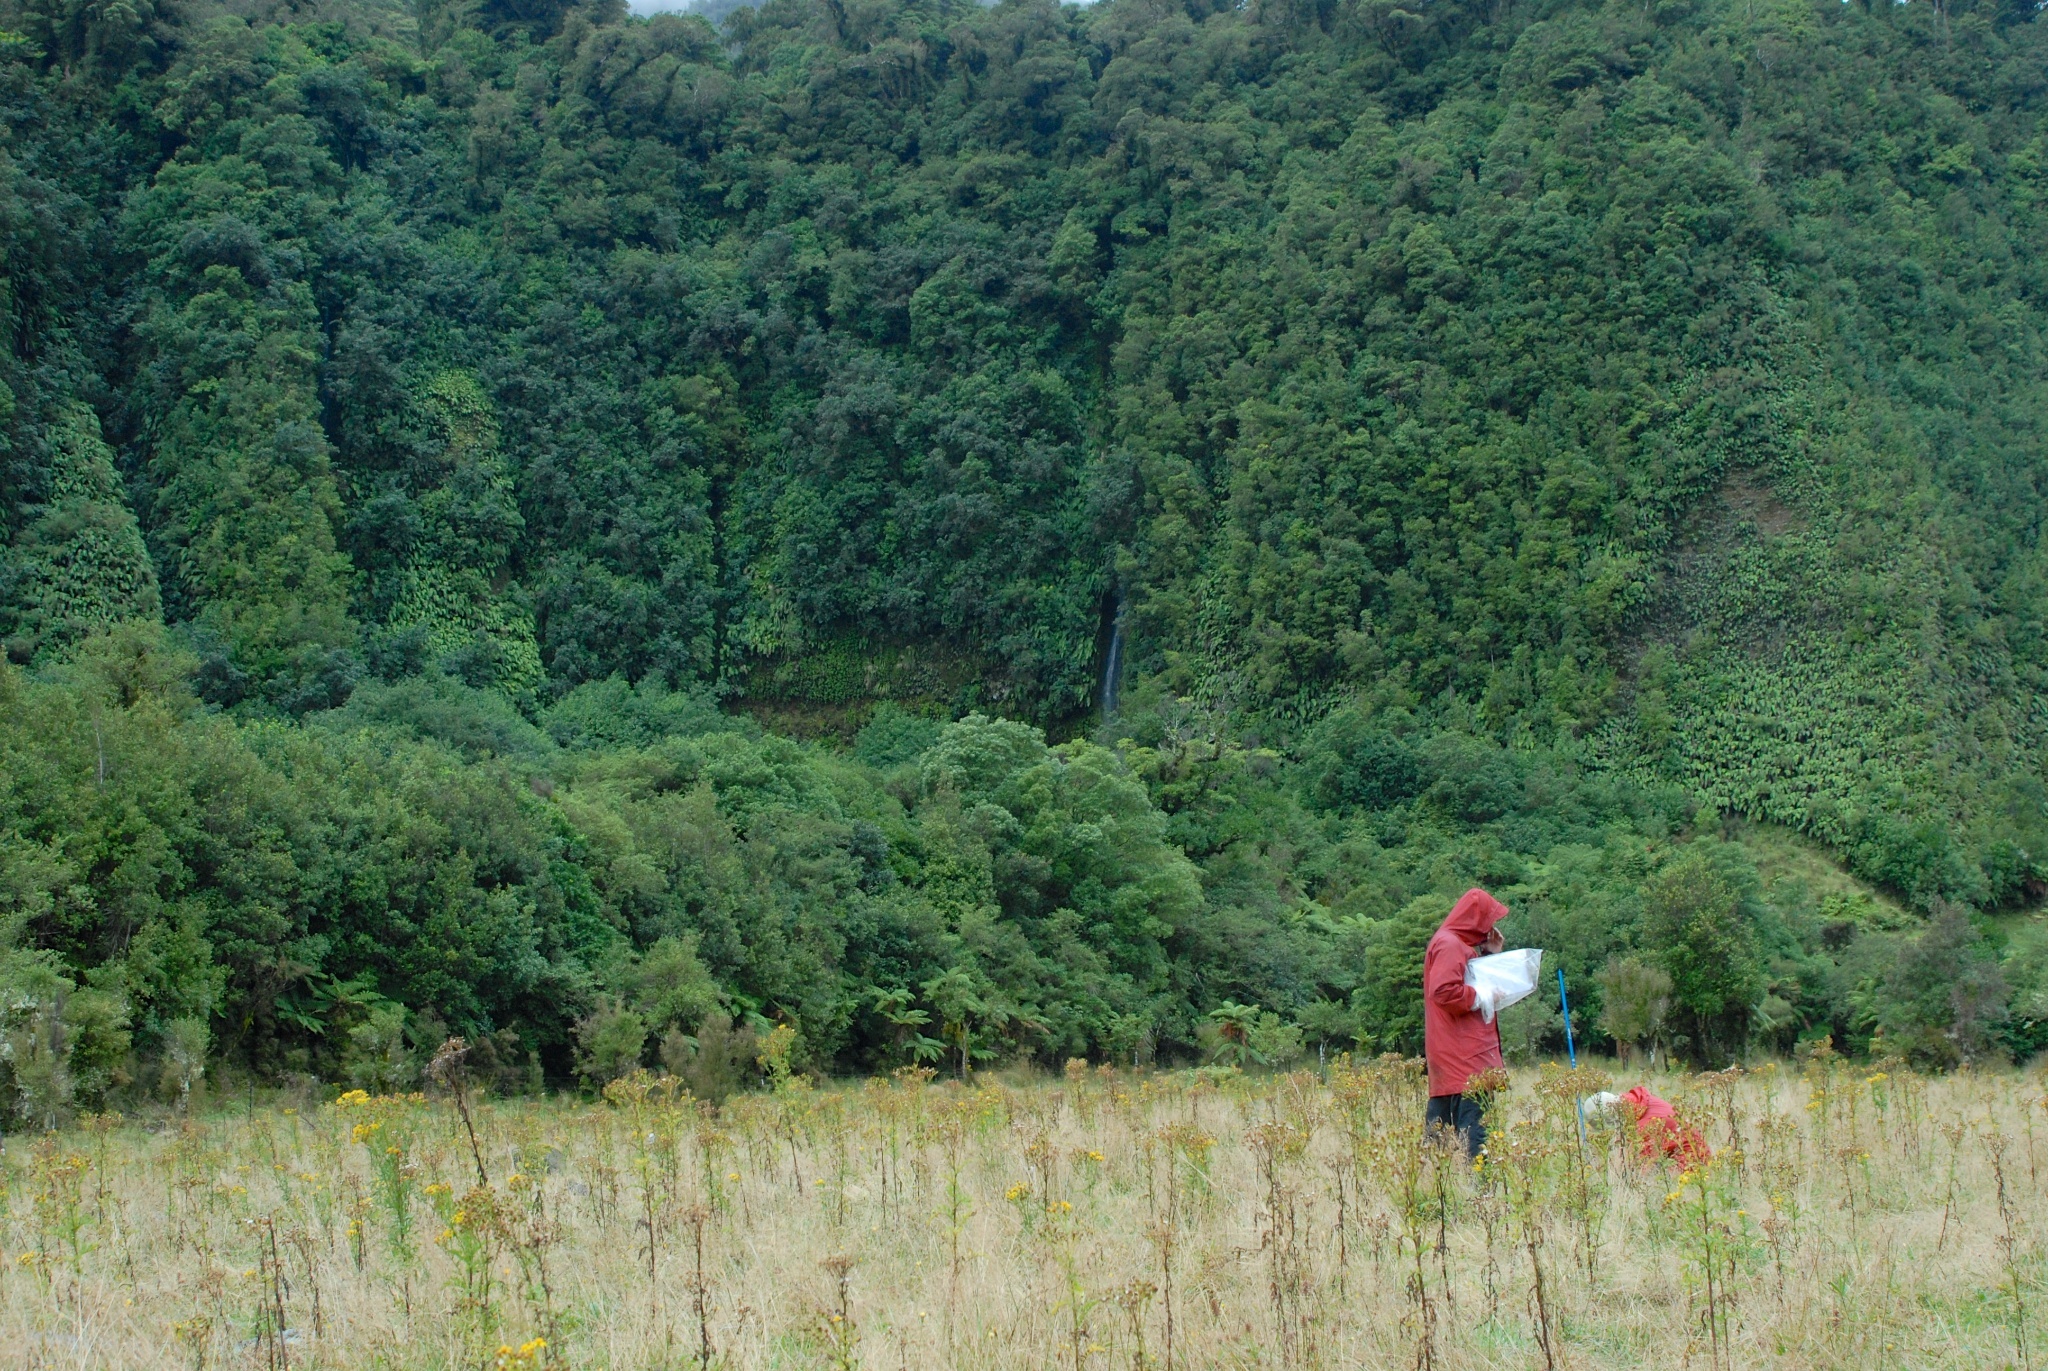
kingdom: Plantae
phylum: Tracheophyta
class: Magnoliopsida
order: Asterales
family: Asteraceae
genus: Jacobaea
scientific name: Jacobaea vulgaris
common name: Stinking willie
